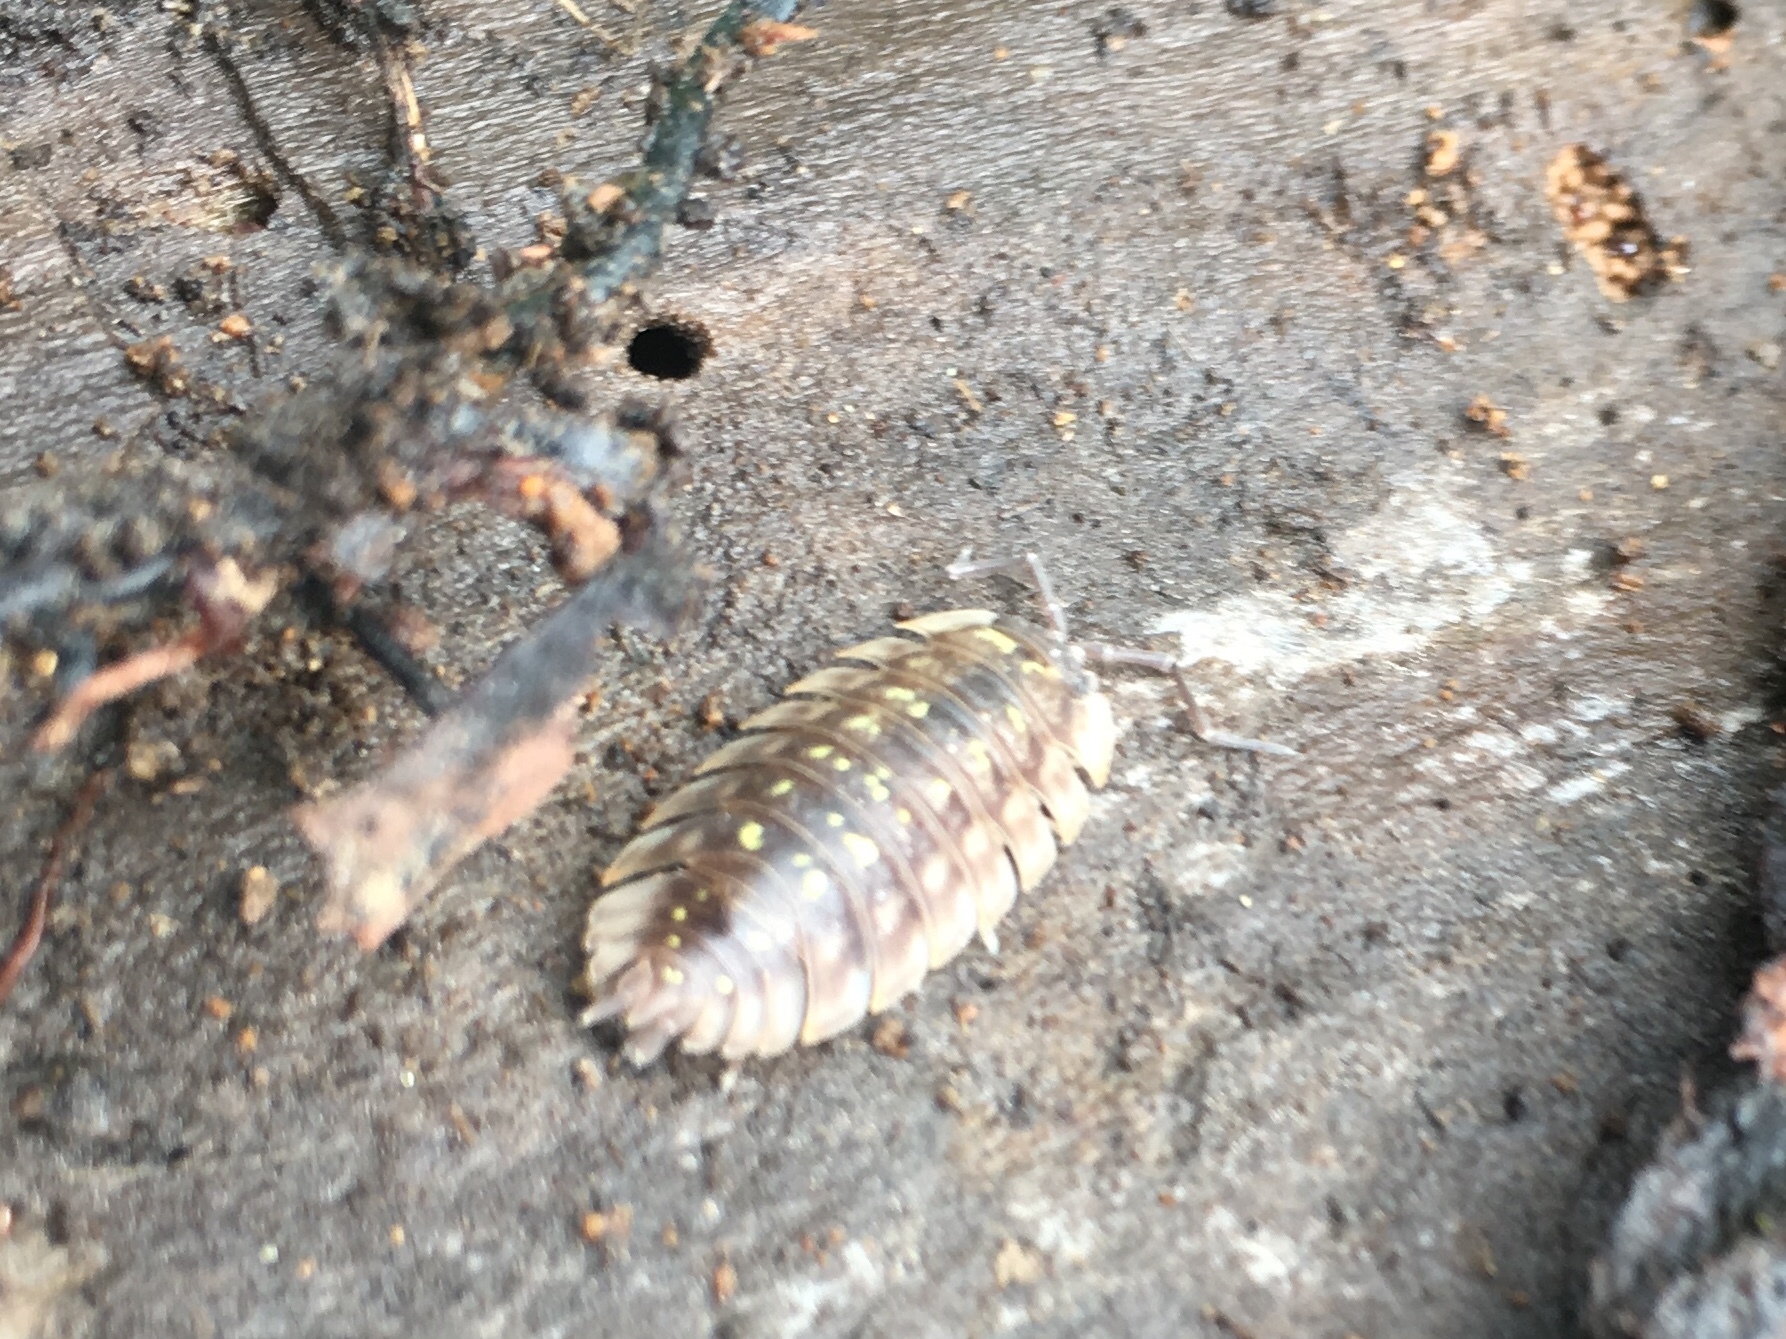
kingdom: Animalia
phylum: Arthropoda
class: Malacostraca
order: Isopoda
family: Oniscidae
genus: Oniscus
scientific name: Oniscus asellus
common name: Common shiny woodlouse
